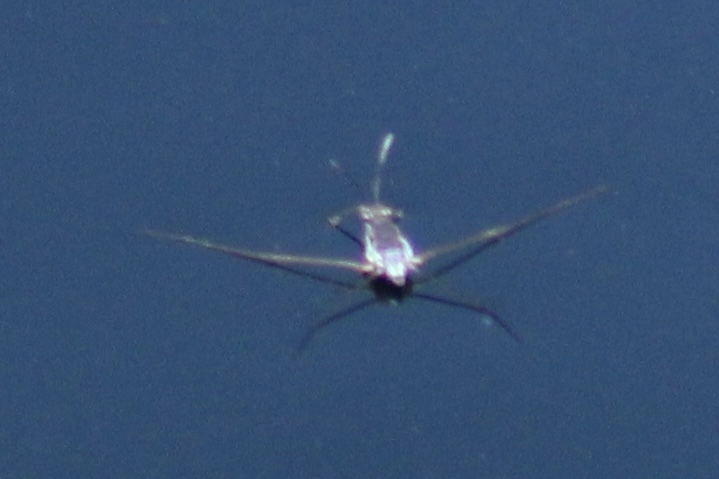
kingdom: Animalia
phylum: Arthropoda
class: Insecta
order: Hemiptera
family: Gerridae
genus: Neogerris
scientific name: Neogerris hesione
